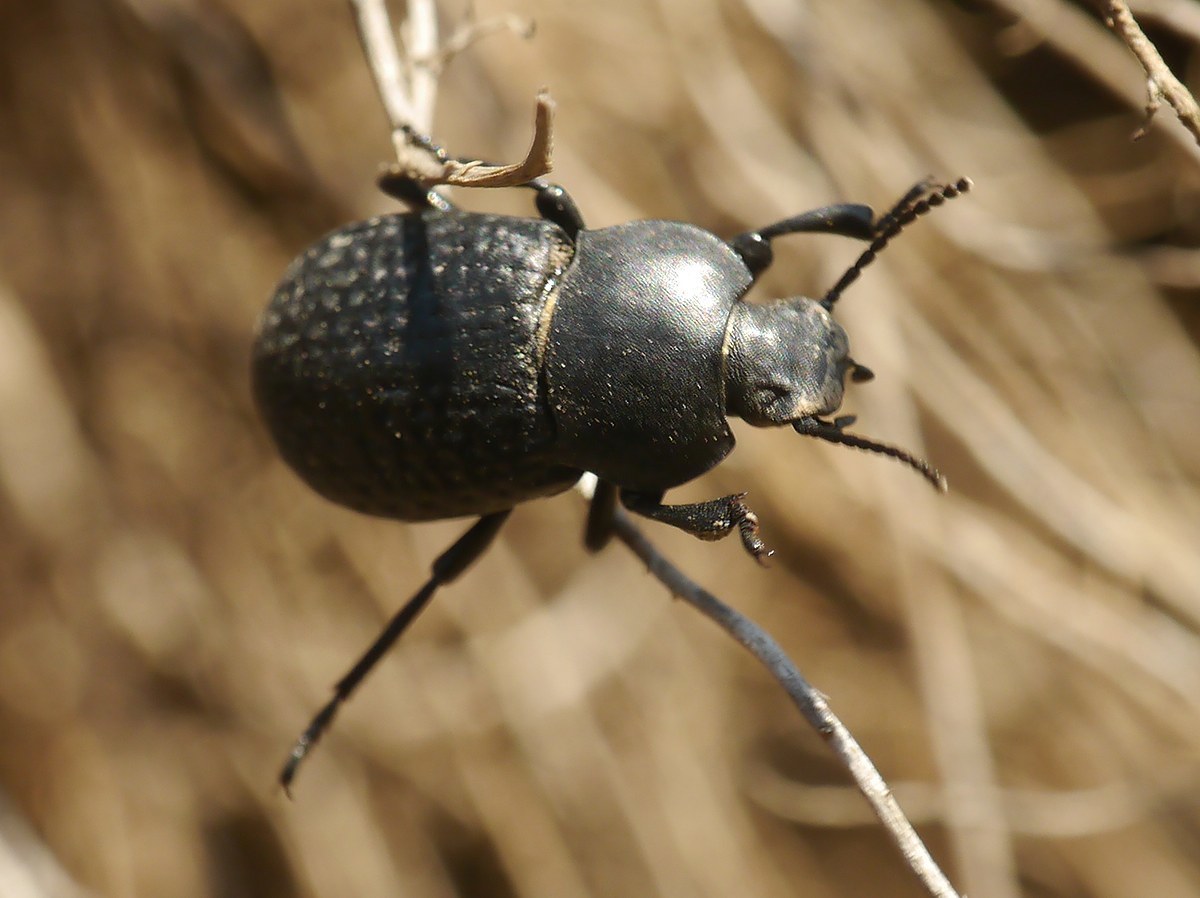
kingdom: Animalia
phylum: Arthropoda
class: Insecta
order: Coleoptera
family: Tenebrionidae
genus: Dendarus
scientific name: Dendarus punctatus
